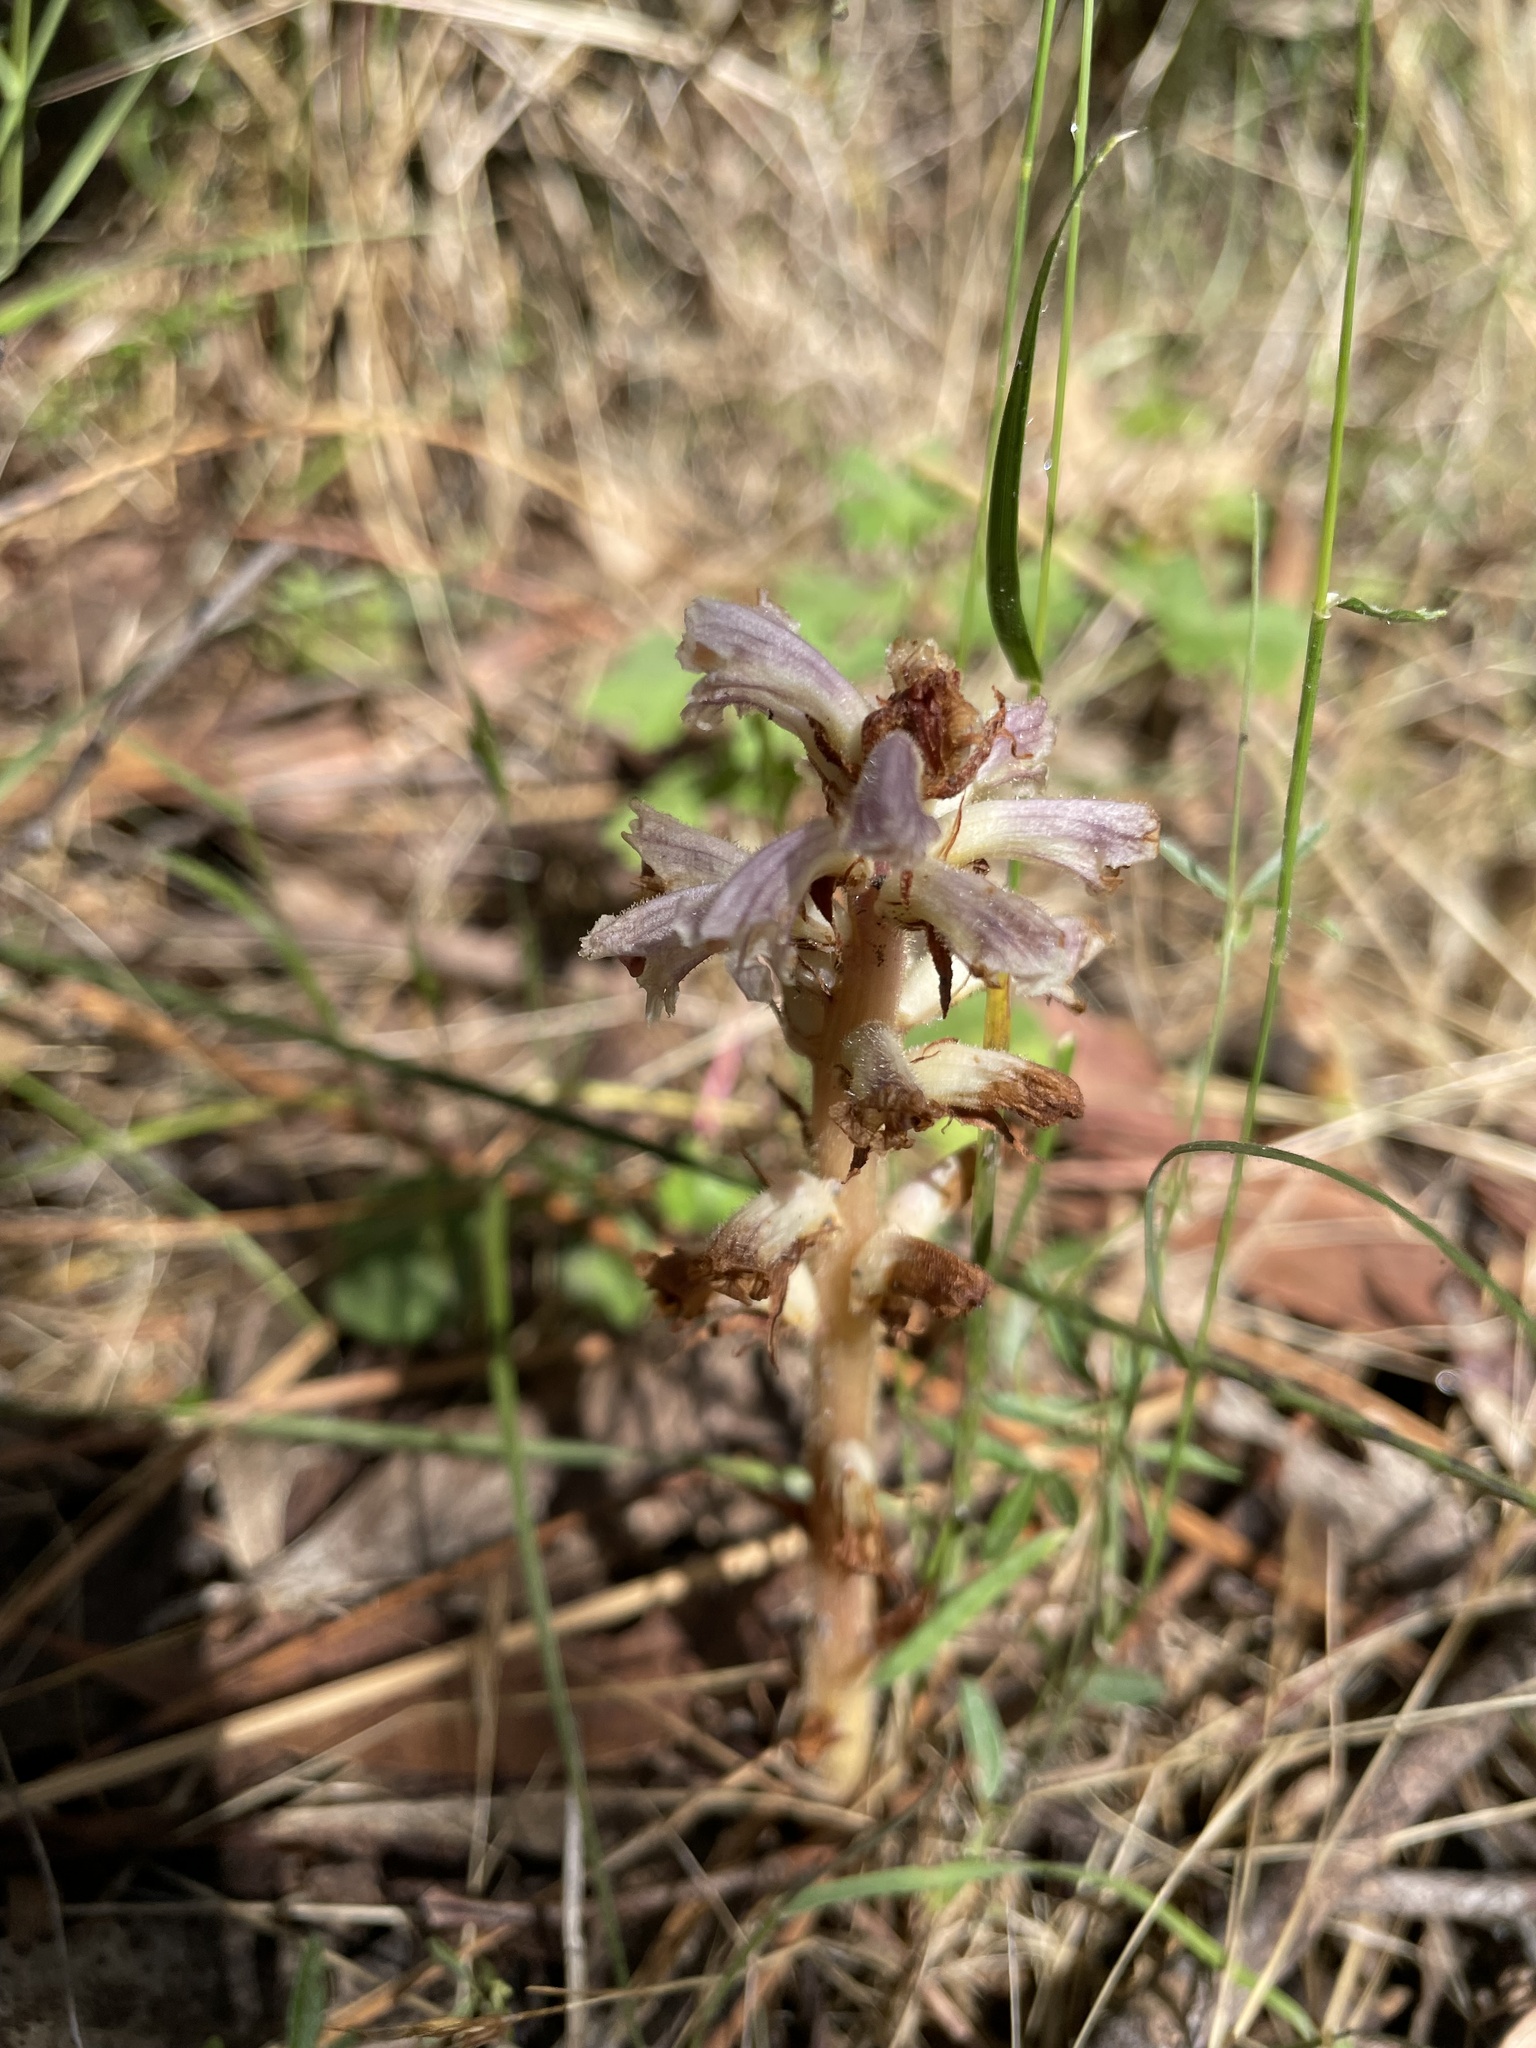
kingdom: Plantae
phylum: Tracheophyta
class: Magnoliopsida
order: Lamiales
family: Orobanchaceae
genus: Orobanche
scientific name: Orobanche minor
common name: Common broomrape
